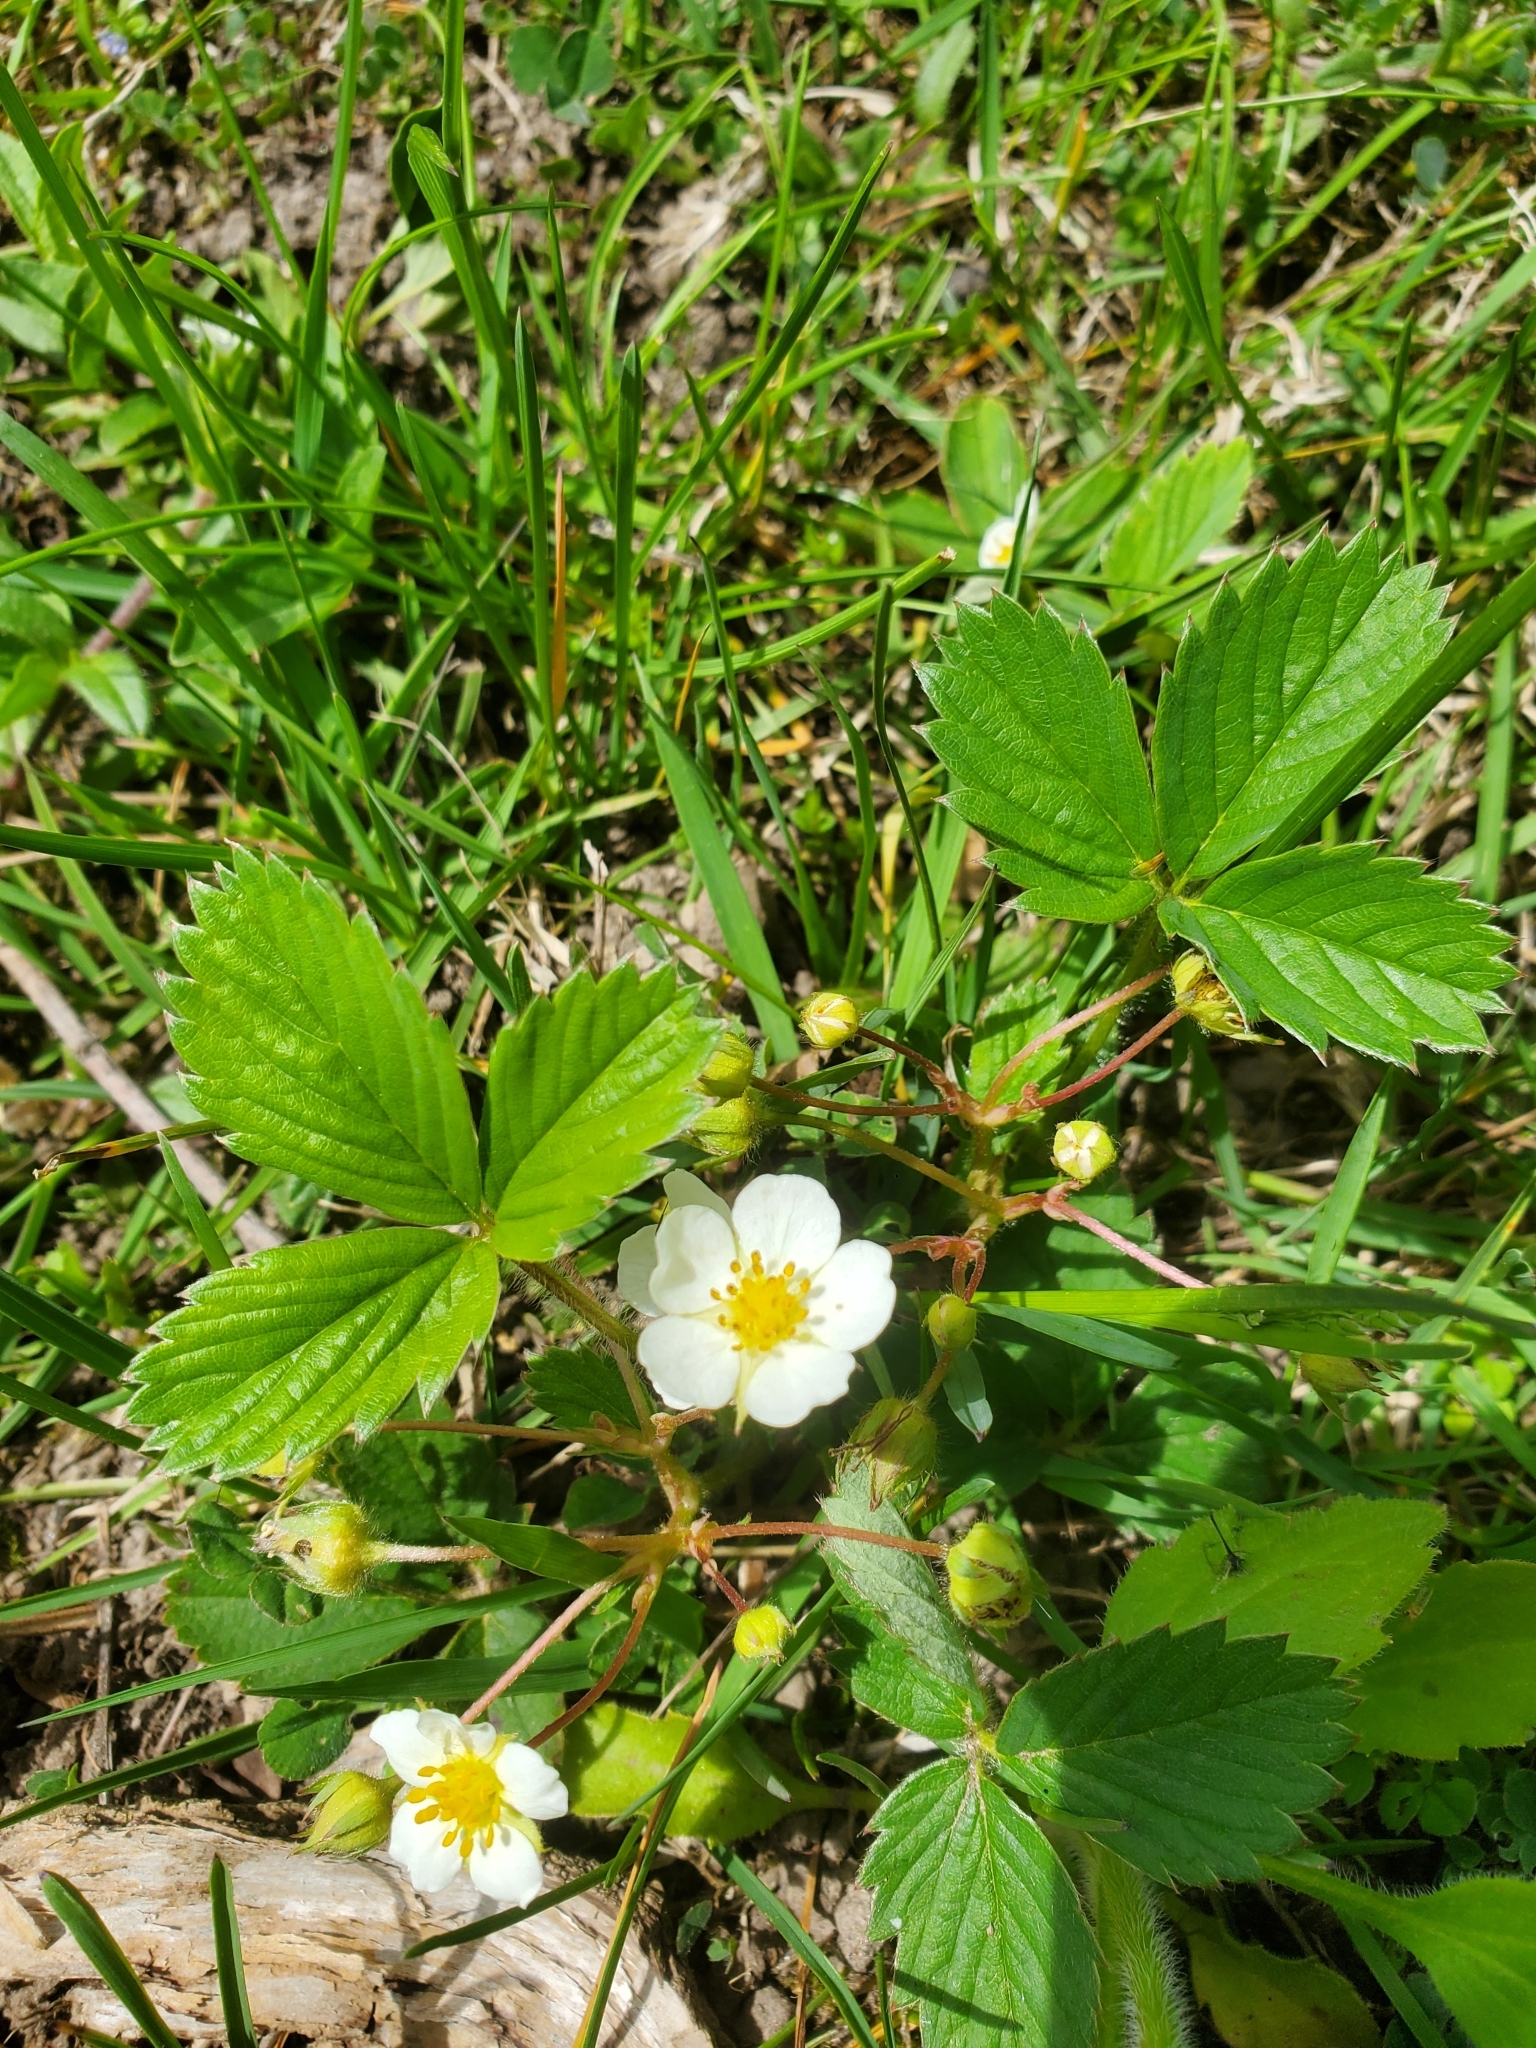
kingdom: Plantae
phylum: Tracheophyta
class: Magnoliopsida
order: Rosales
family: Rosaceae
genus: Fragaria
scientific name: Fragaria virginiana
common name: Thickleaved wild strawberry
